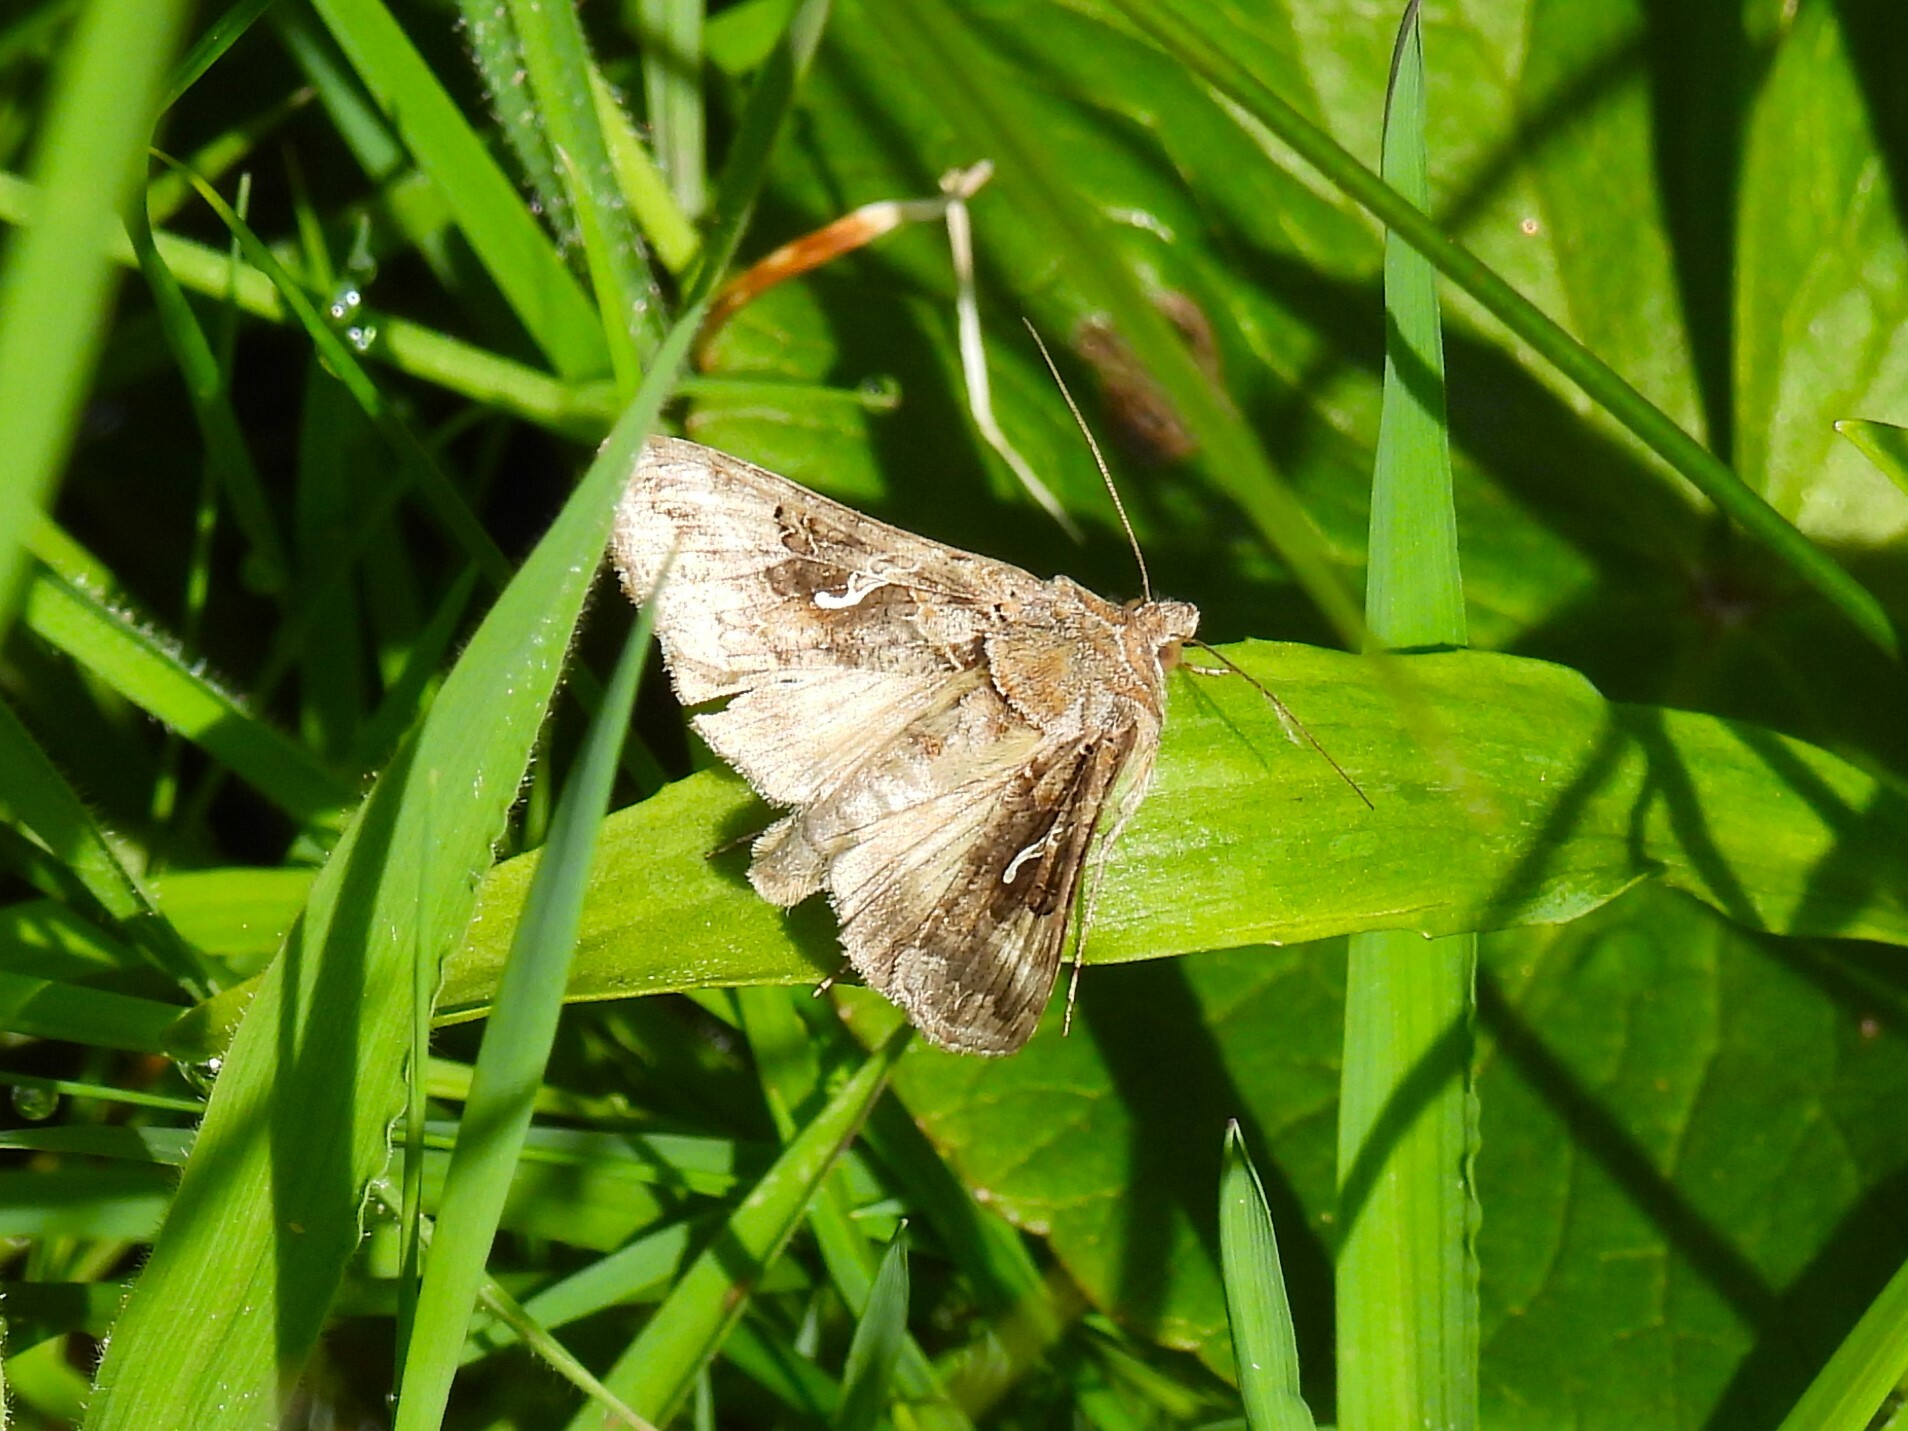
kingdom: Animalia
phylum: Arthropoda
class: Insecta
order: Lepidoptera
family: Noctuidae
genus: Autographa
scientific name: Autographa gamma
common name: Silver y
